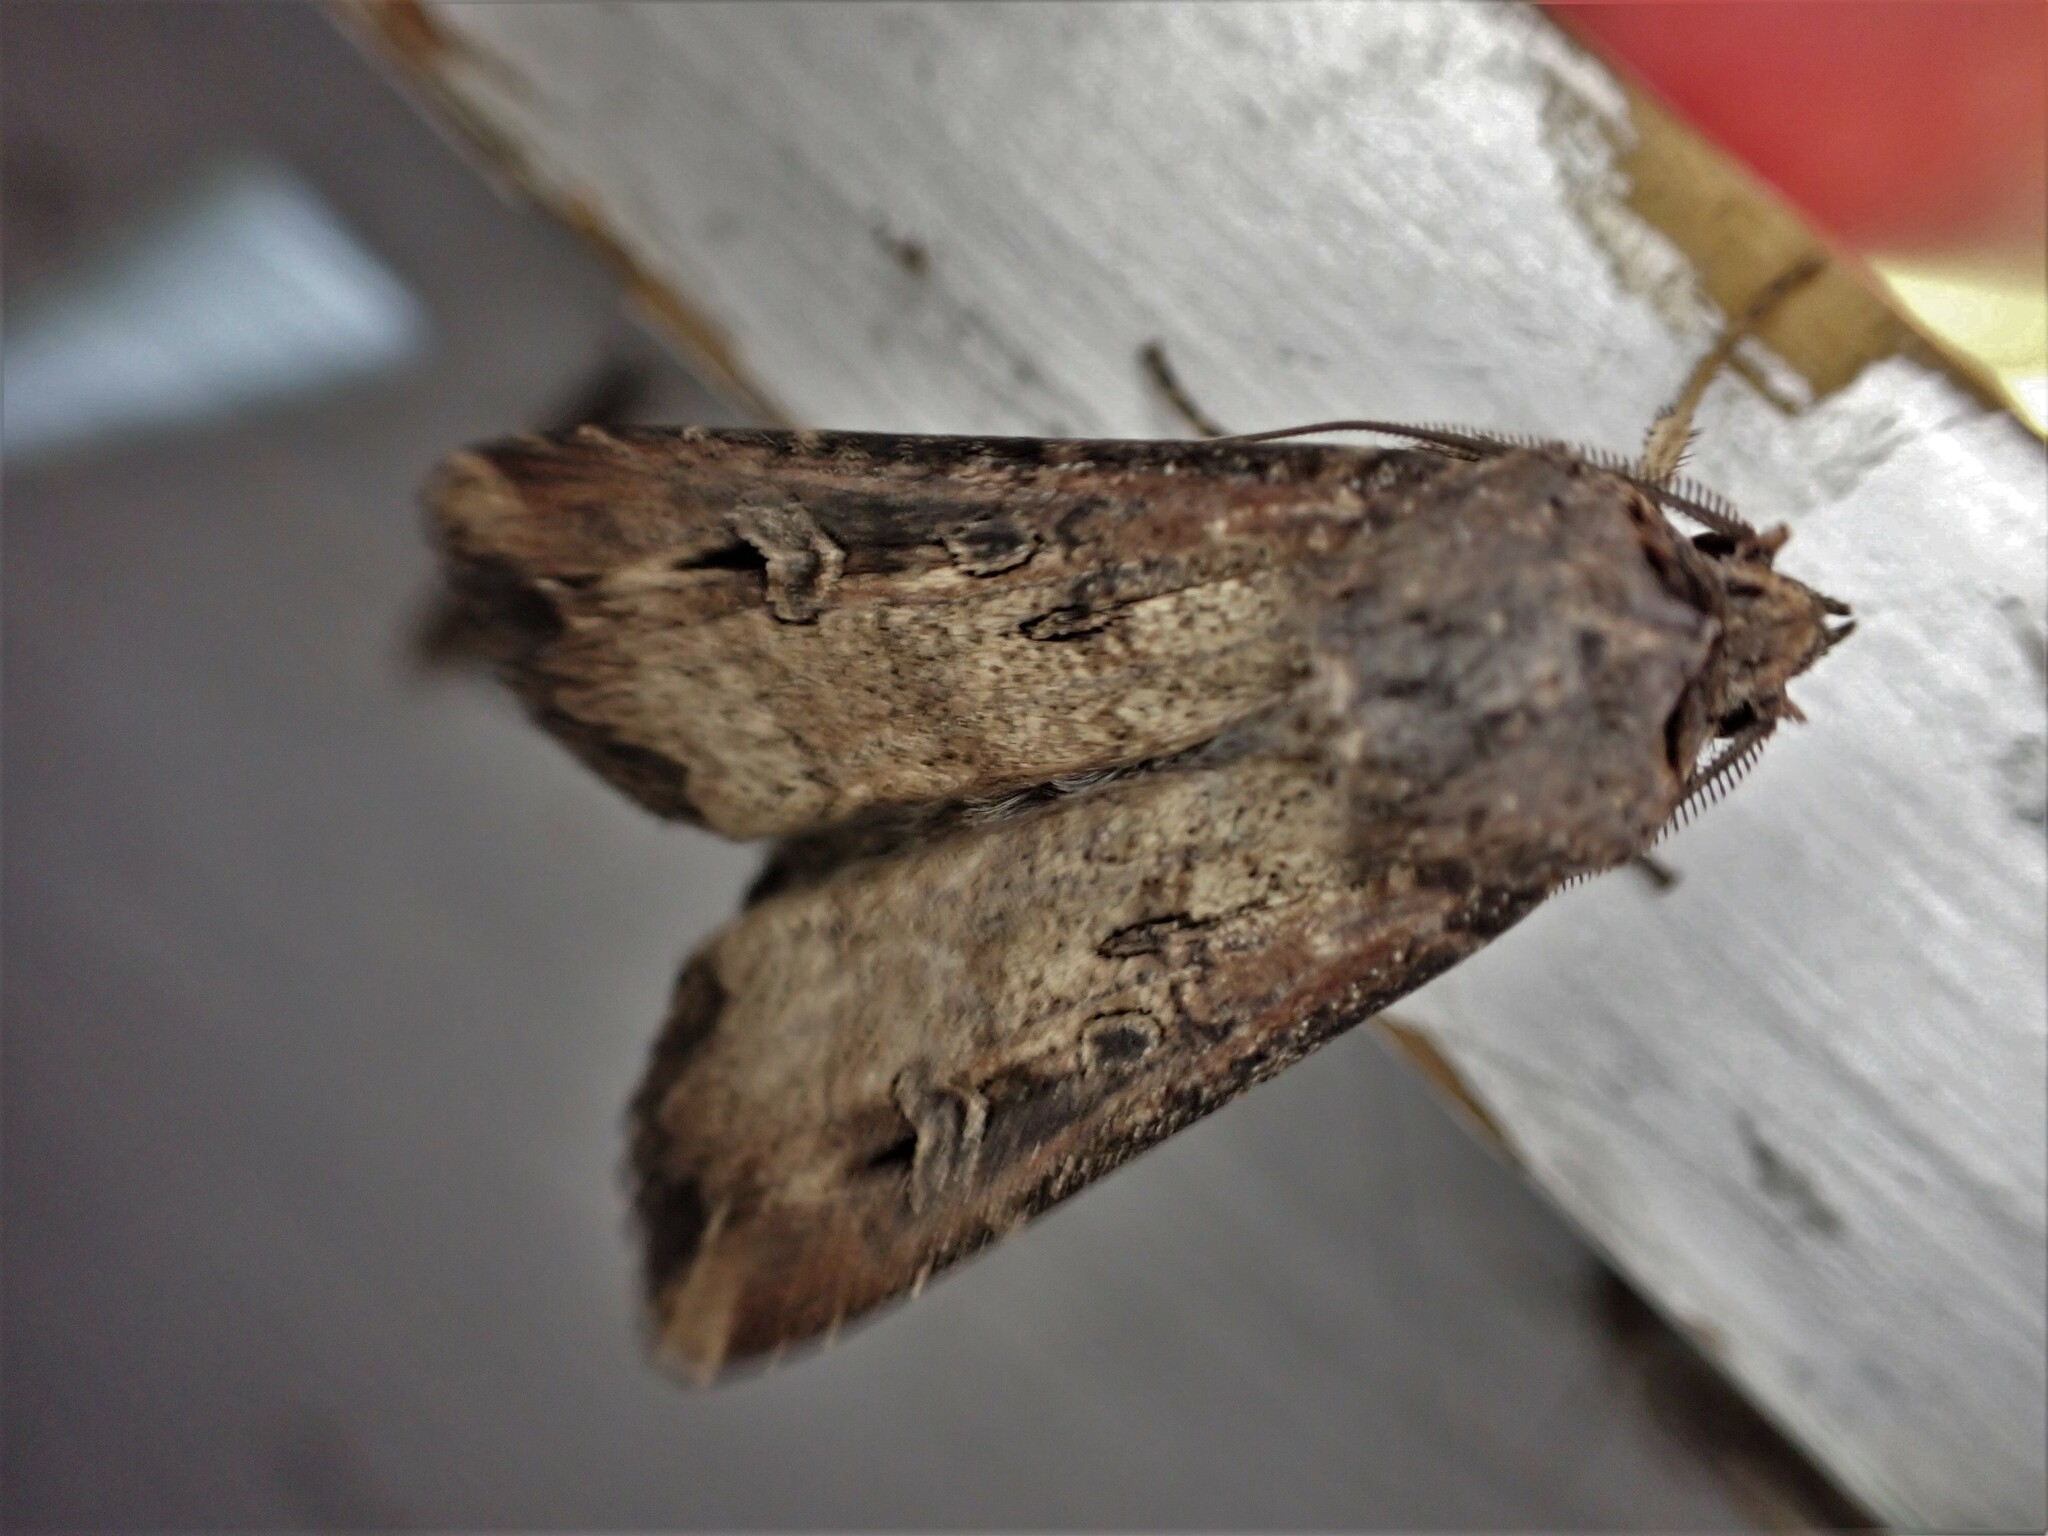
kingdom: Animalia
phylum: Arthropoda
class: Insecta
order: Lepidoptera
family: Noctuidae
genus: Agrotis
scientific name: Agrotis ipsilon
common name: Dark sword-grass
